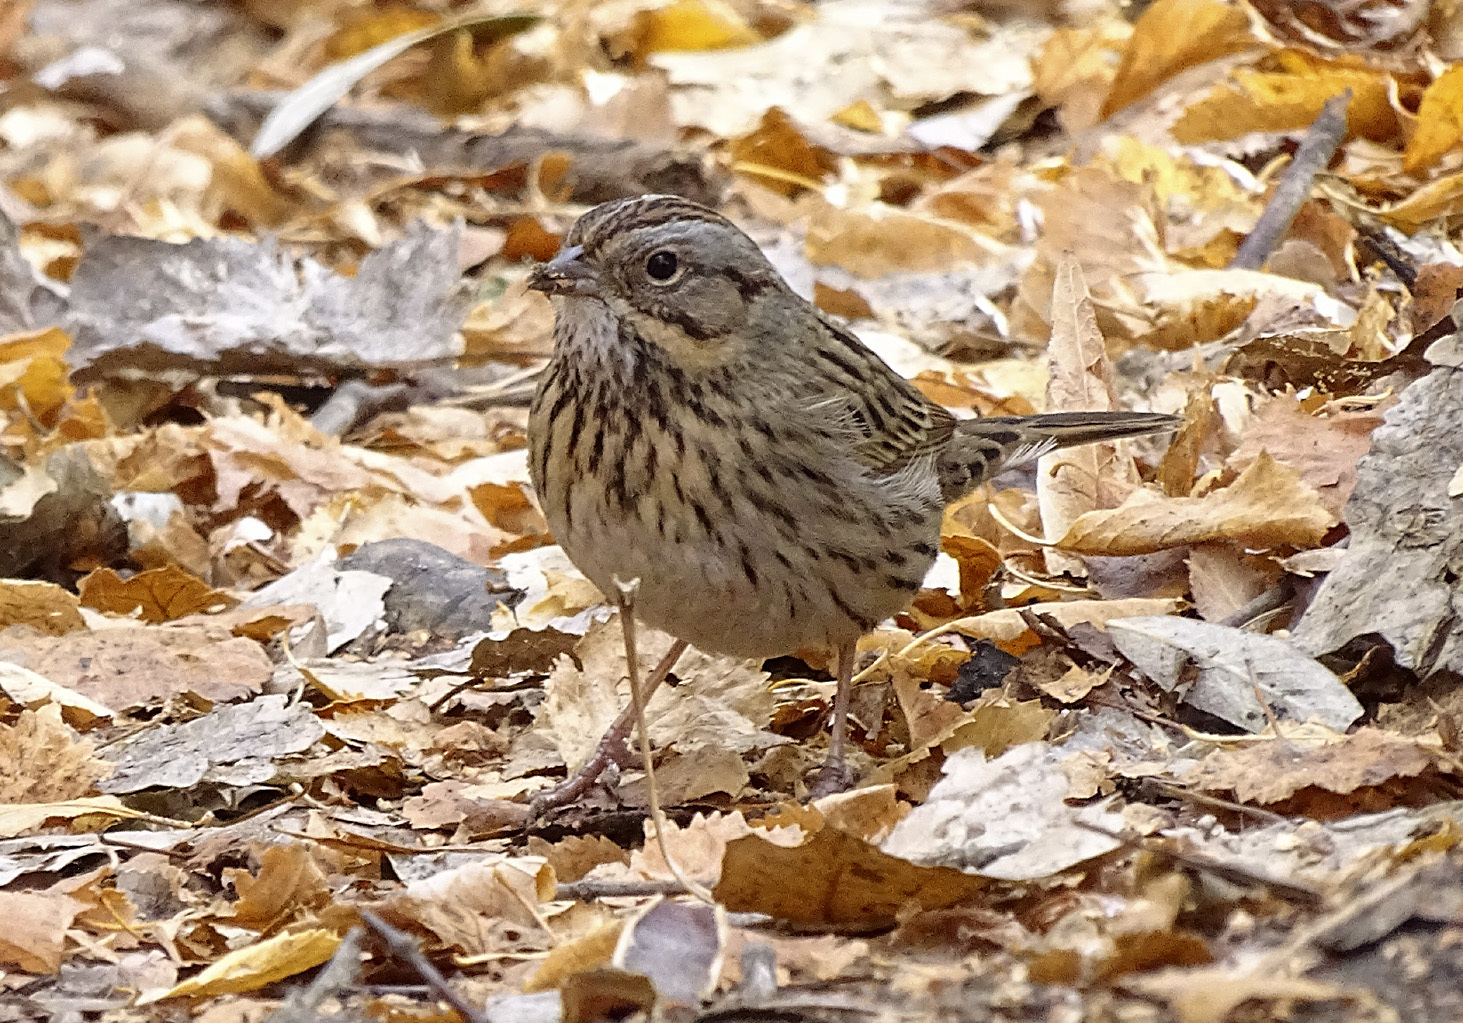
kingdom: Animalia
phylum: Chordata
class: Aves
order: Passeriformes
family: Passerellidae
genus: Melospiza
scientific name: Melospiza lincolnii
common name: Lincoln's sparrow
